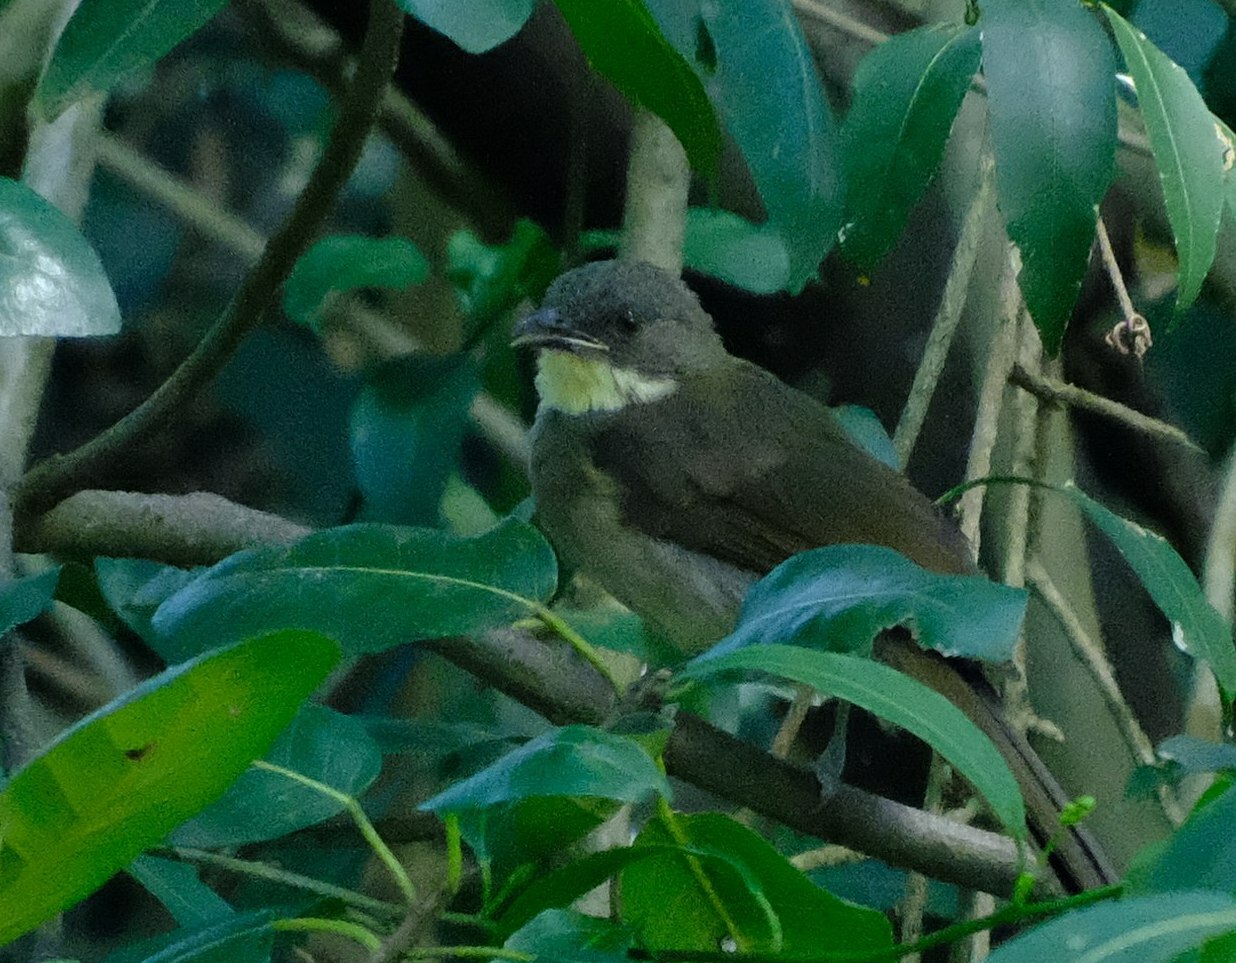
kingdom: Animalia
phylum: Chordata
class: Aves
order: Passeriformes
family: Pycnonotidae
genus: Atimastillas
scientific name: Atimastillas flavicollis
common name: Yellow-throated leaflove
